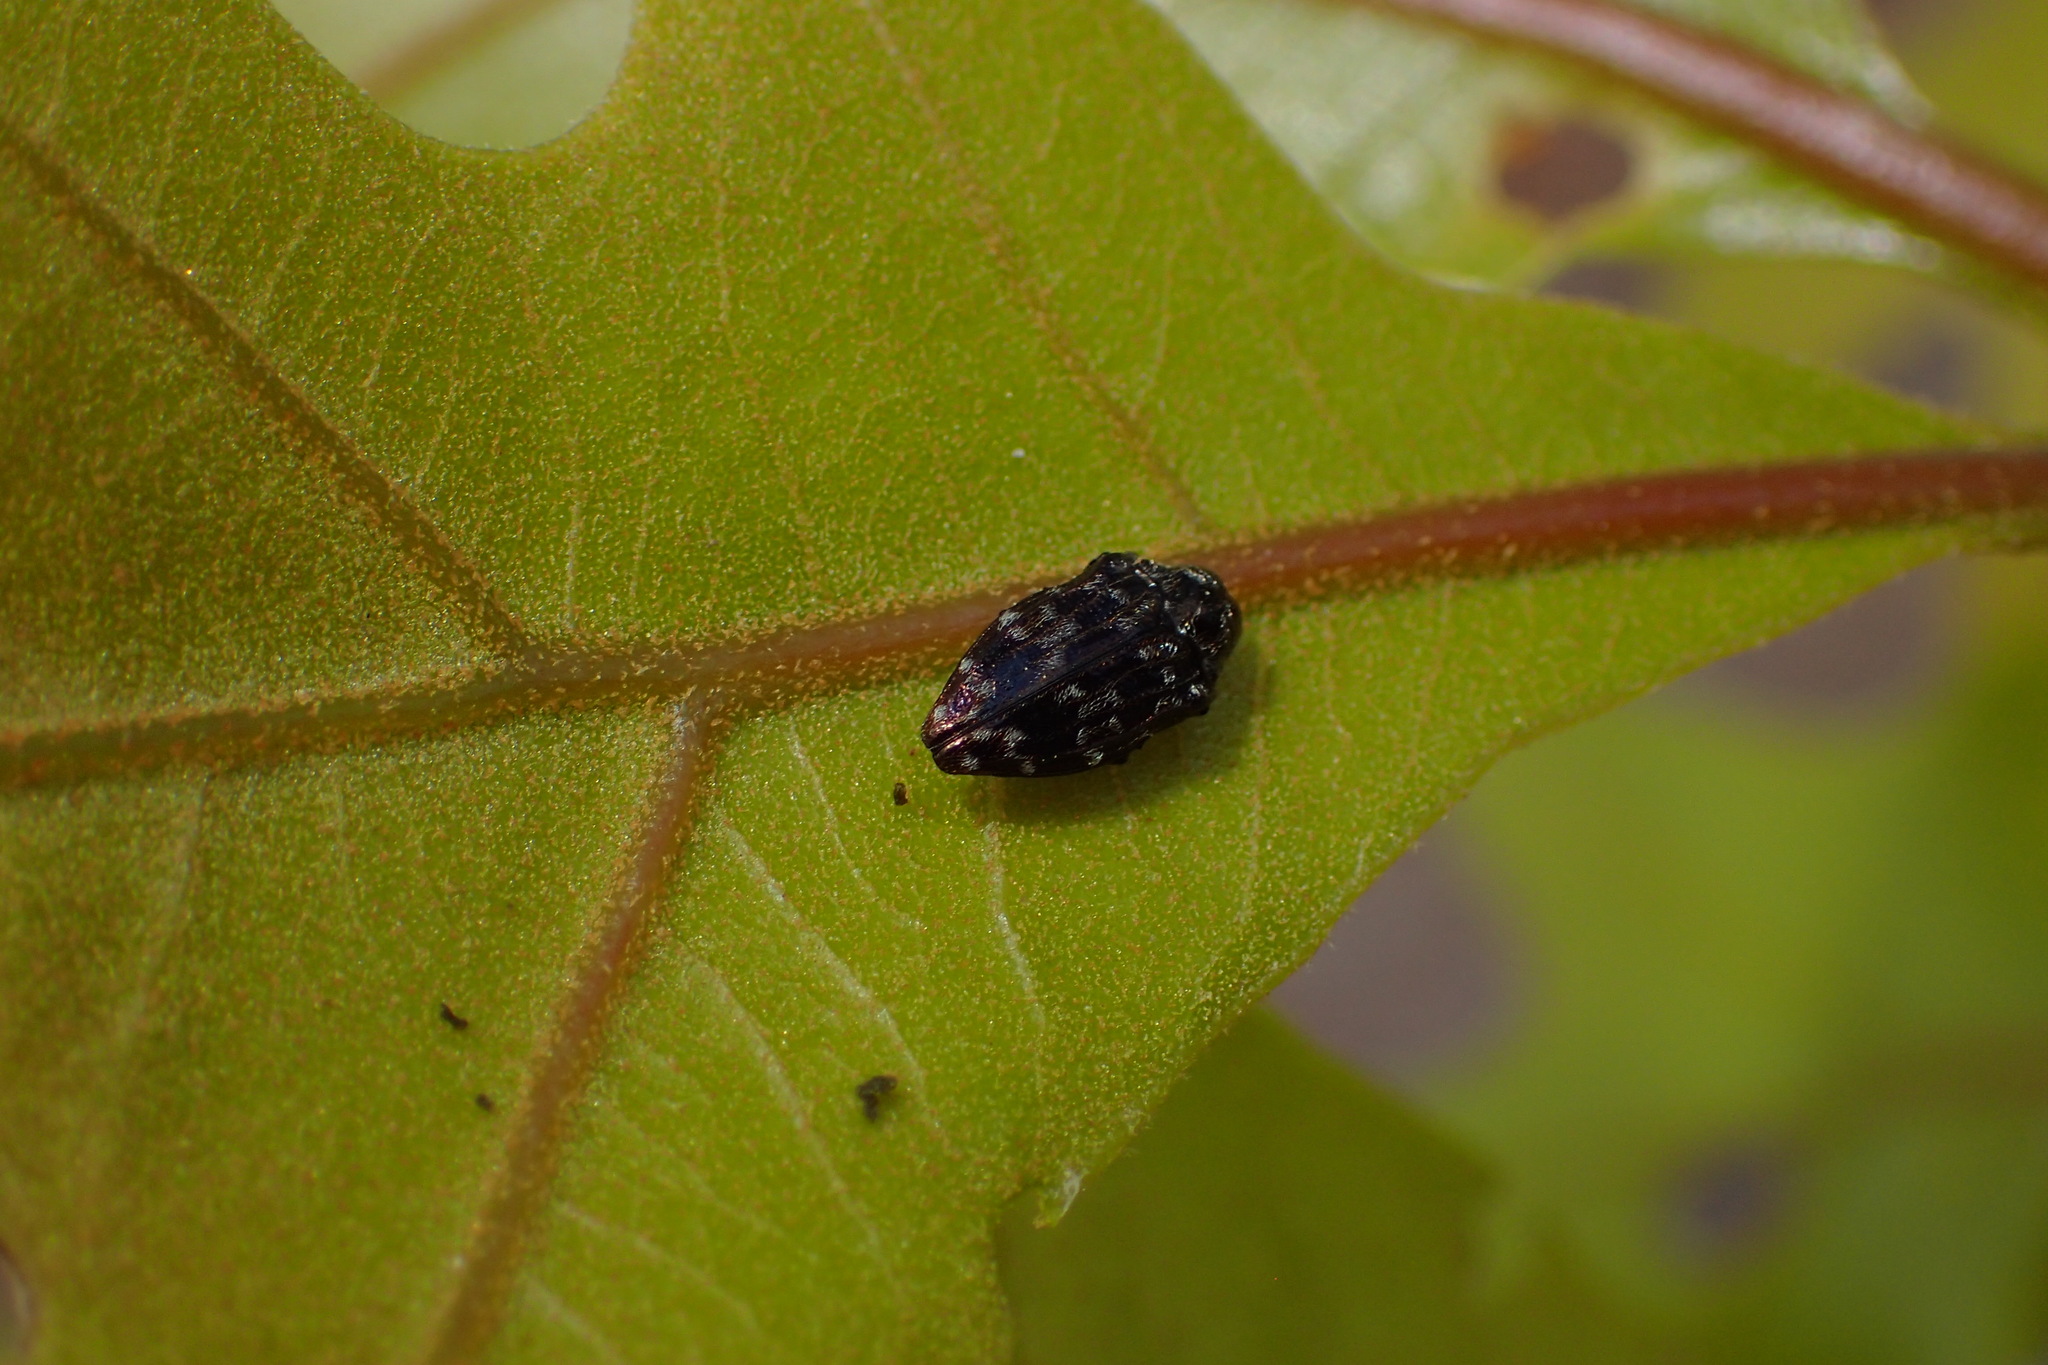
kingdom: Animalia
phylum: Arthropoda
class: Insecta
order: Coleoptera
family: Buprestidae
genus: Brachys
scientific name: Brachys tesselatus
